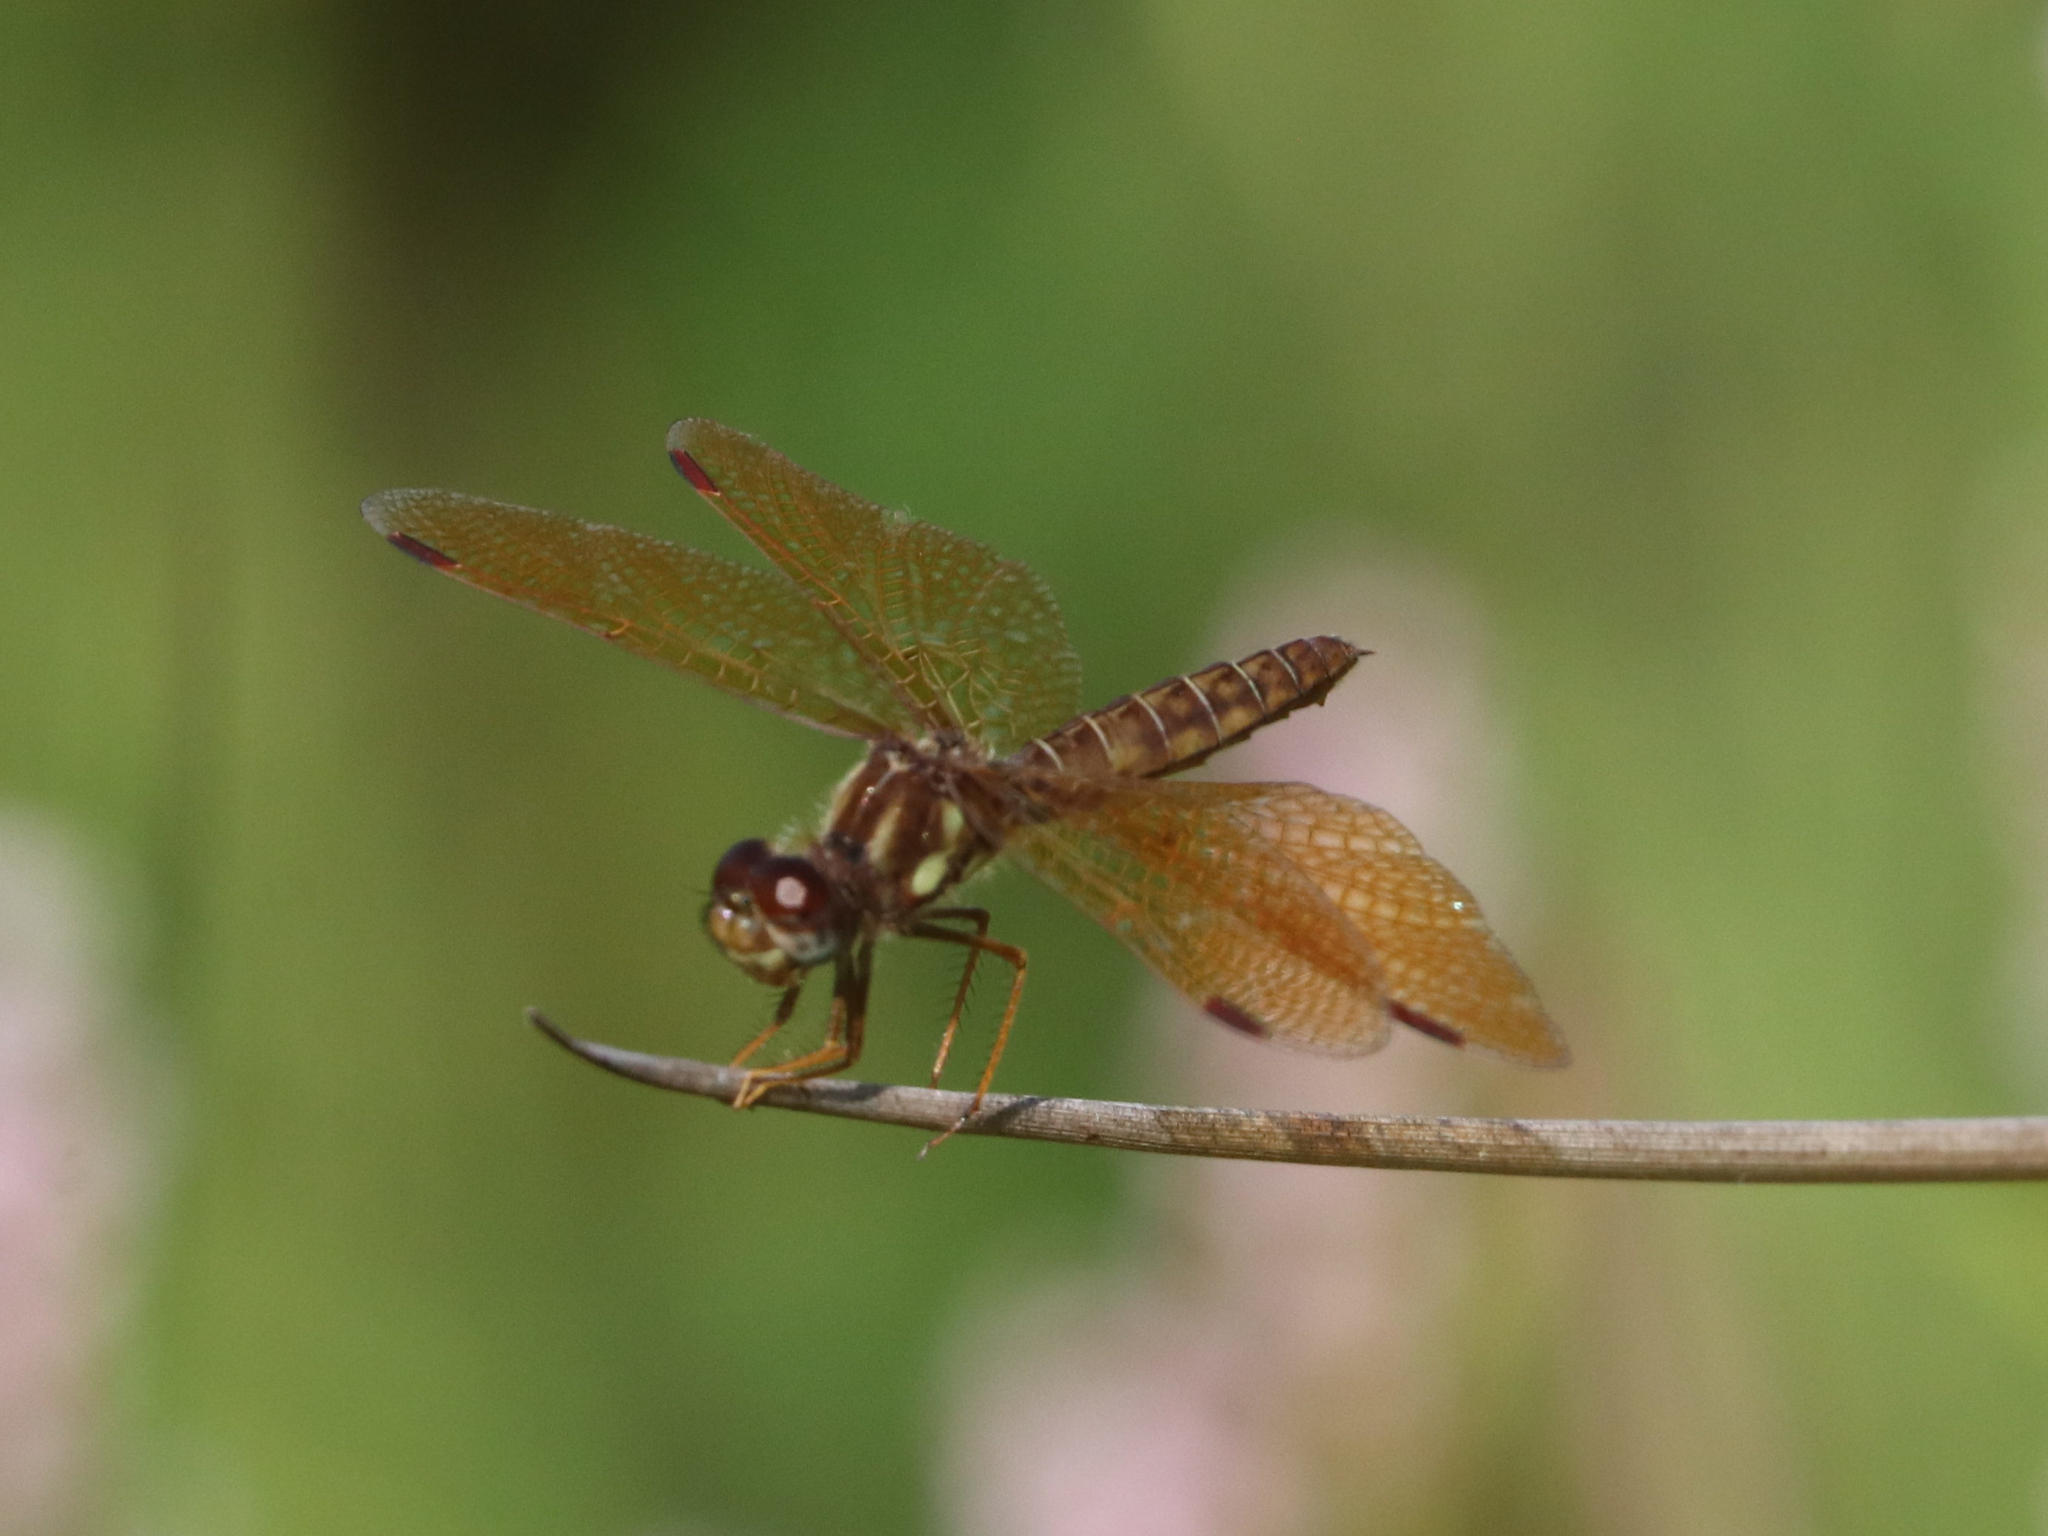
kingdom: Animalia
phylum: Arthropoda
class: Insecta
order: Odonata
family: Libellulidae
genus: Perithemis
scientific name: Perithemis tenera
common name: Eastern amberwing
